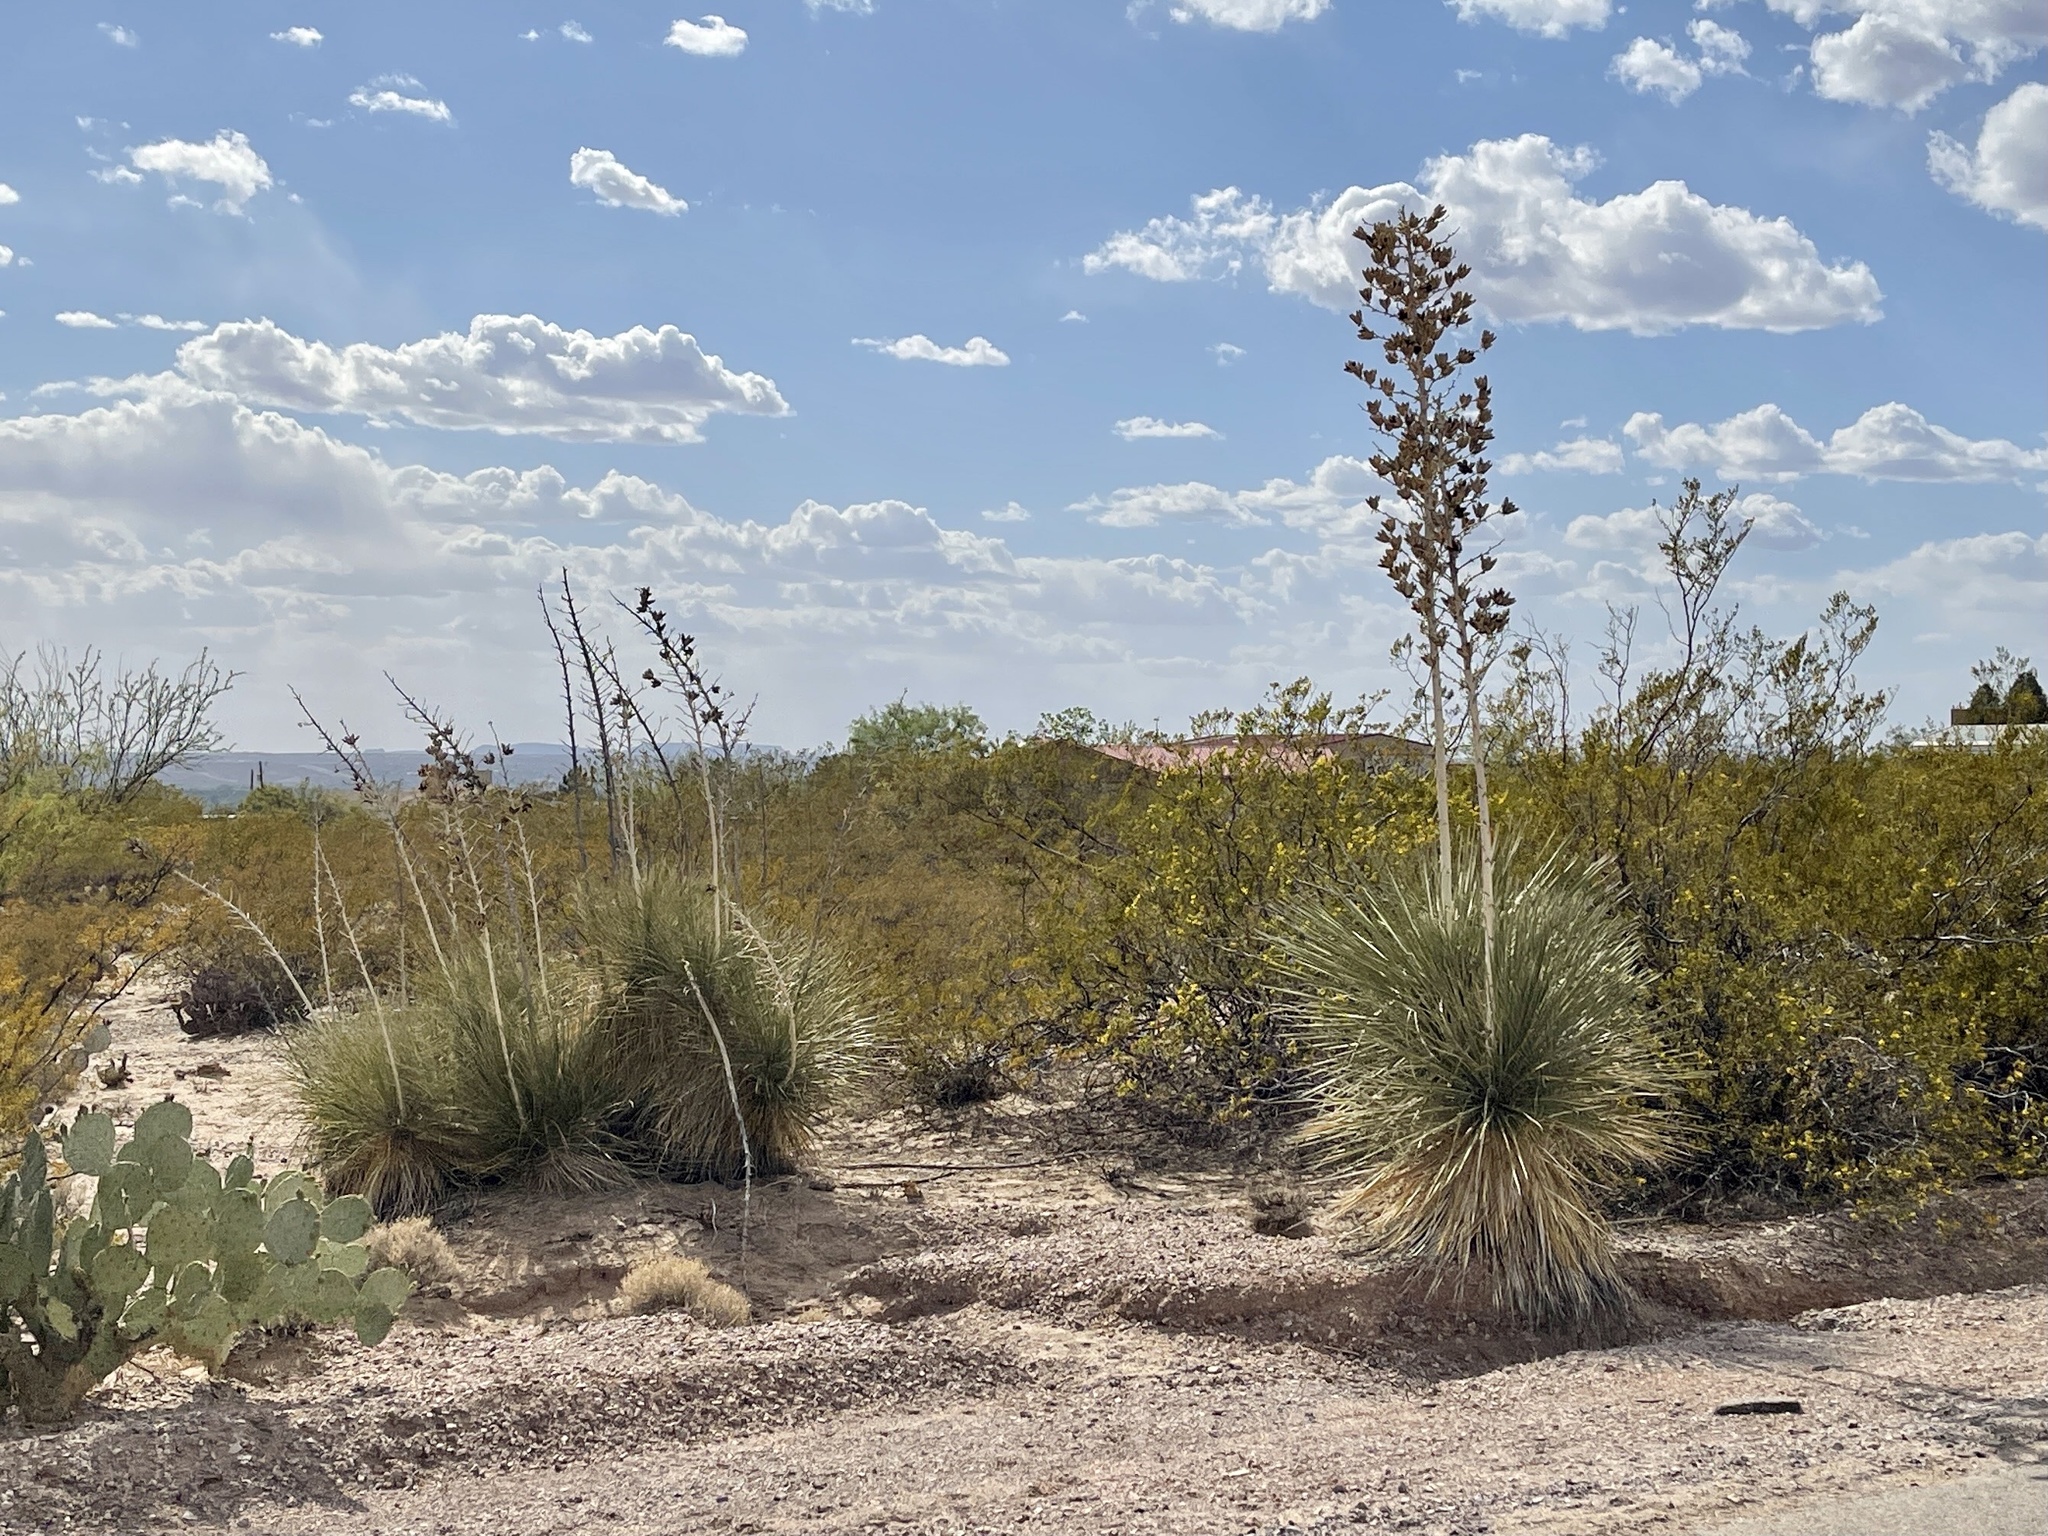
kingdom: Plantae
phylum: Tracheophyta
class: Liliopsida
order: Asparagales
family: Asparagaceae
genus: Yucca
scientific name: Yucca elata
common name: Palmella
